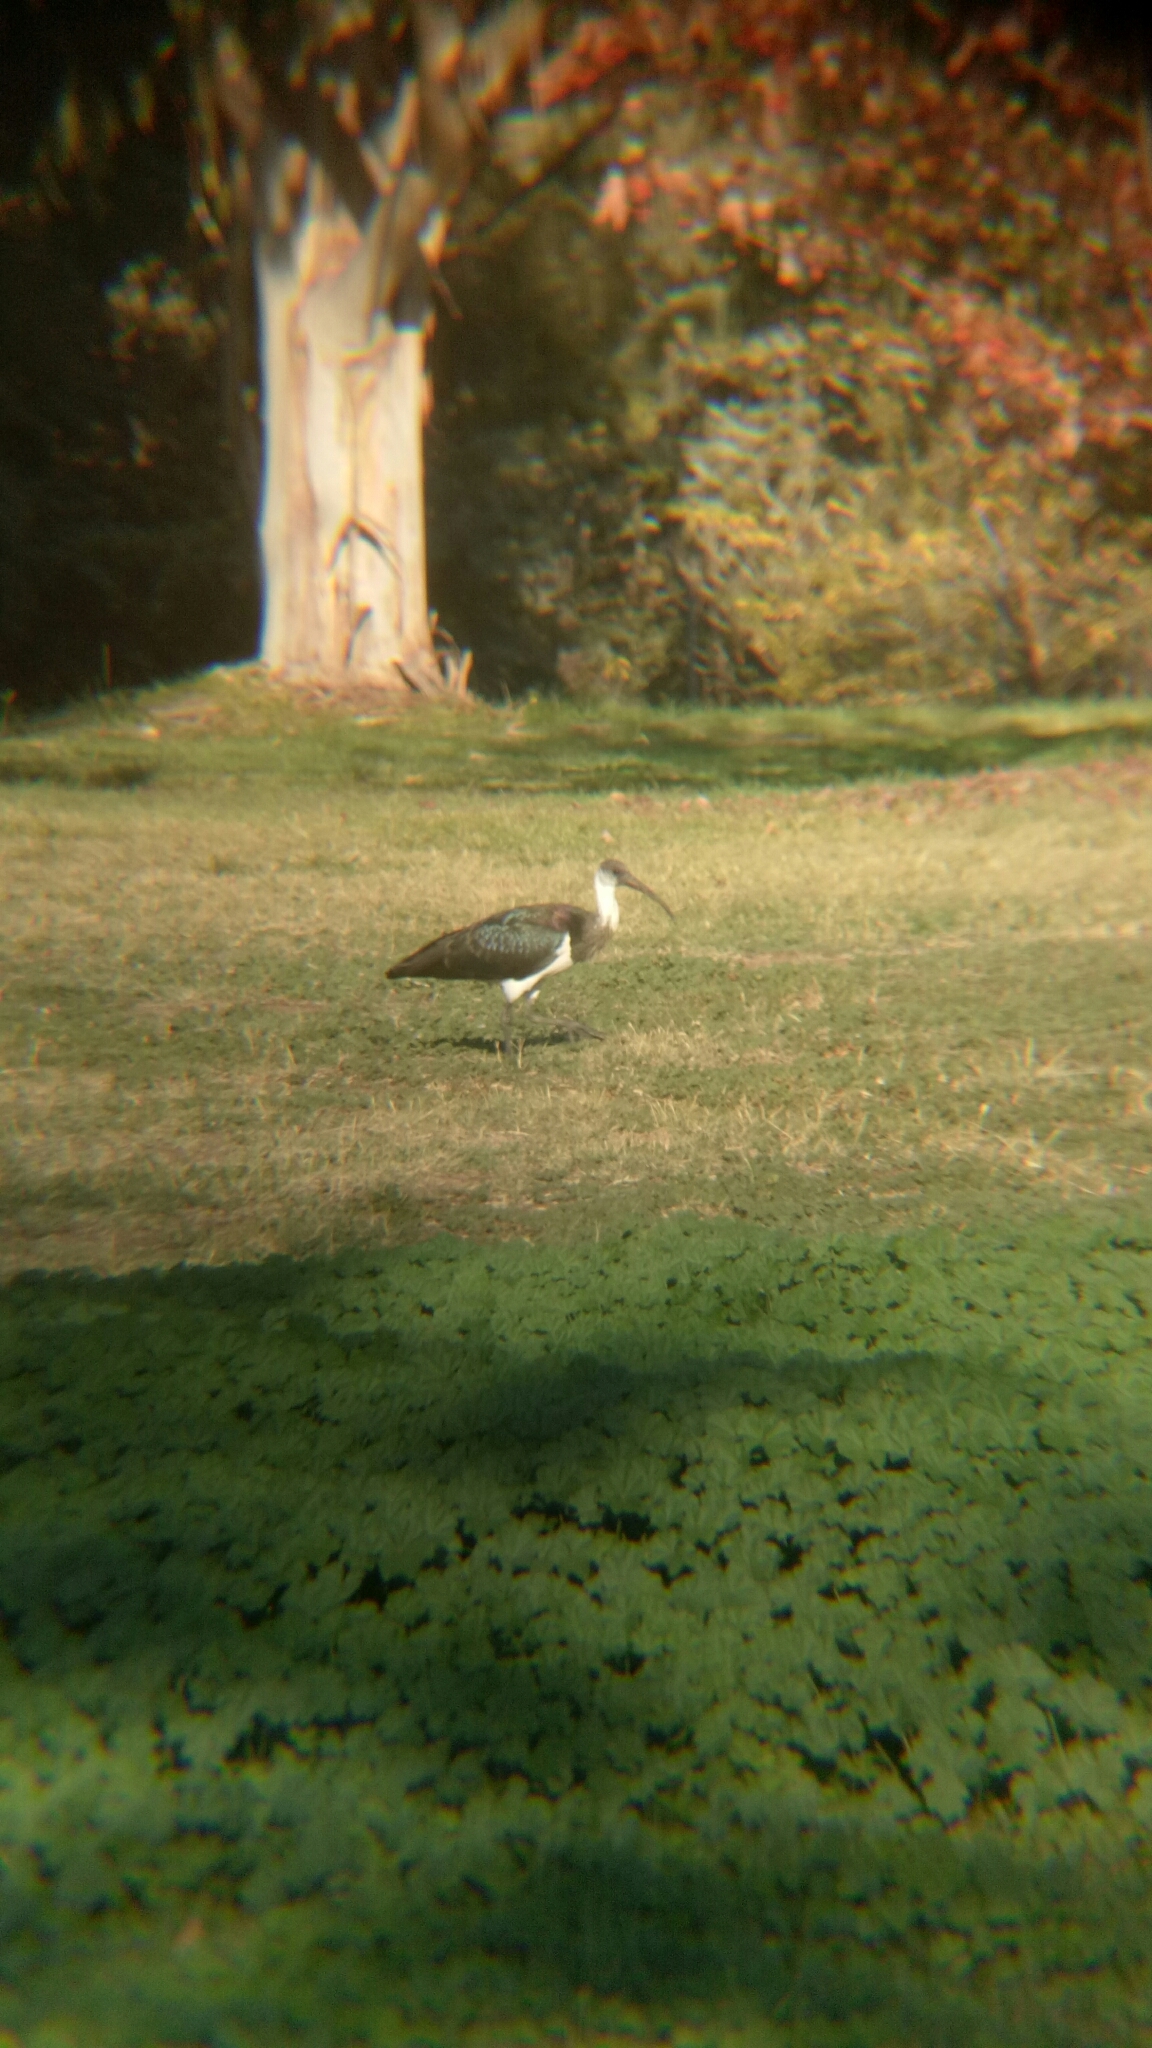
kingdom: Animalia
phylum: Chordata
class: Aves
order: Pelecaniformes
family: Threskiornithidae
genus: Threskiornis
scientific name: Threskiornis spinicollis
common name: Straw-necked ibis
